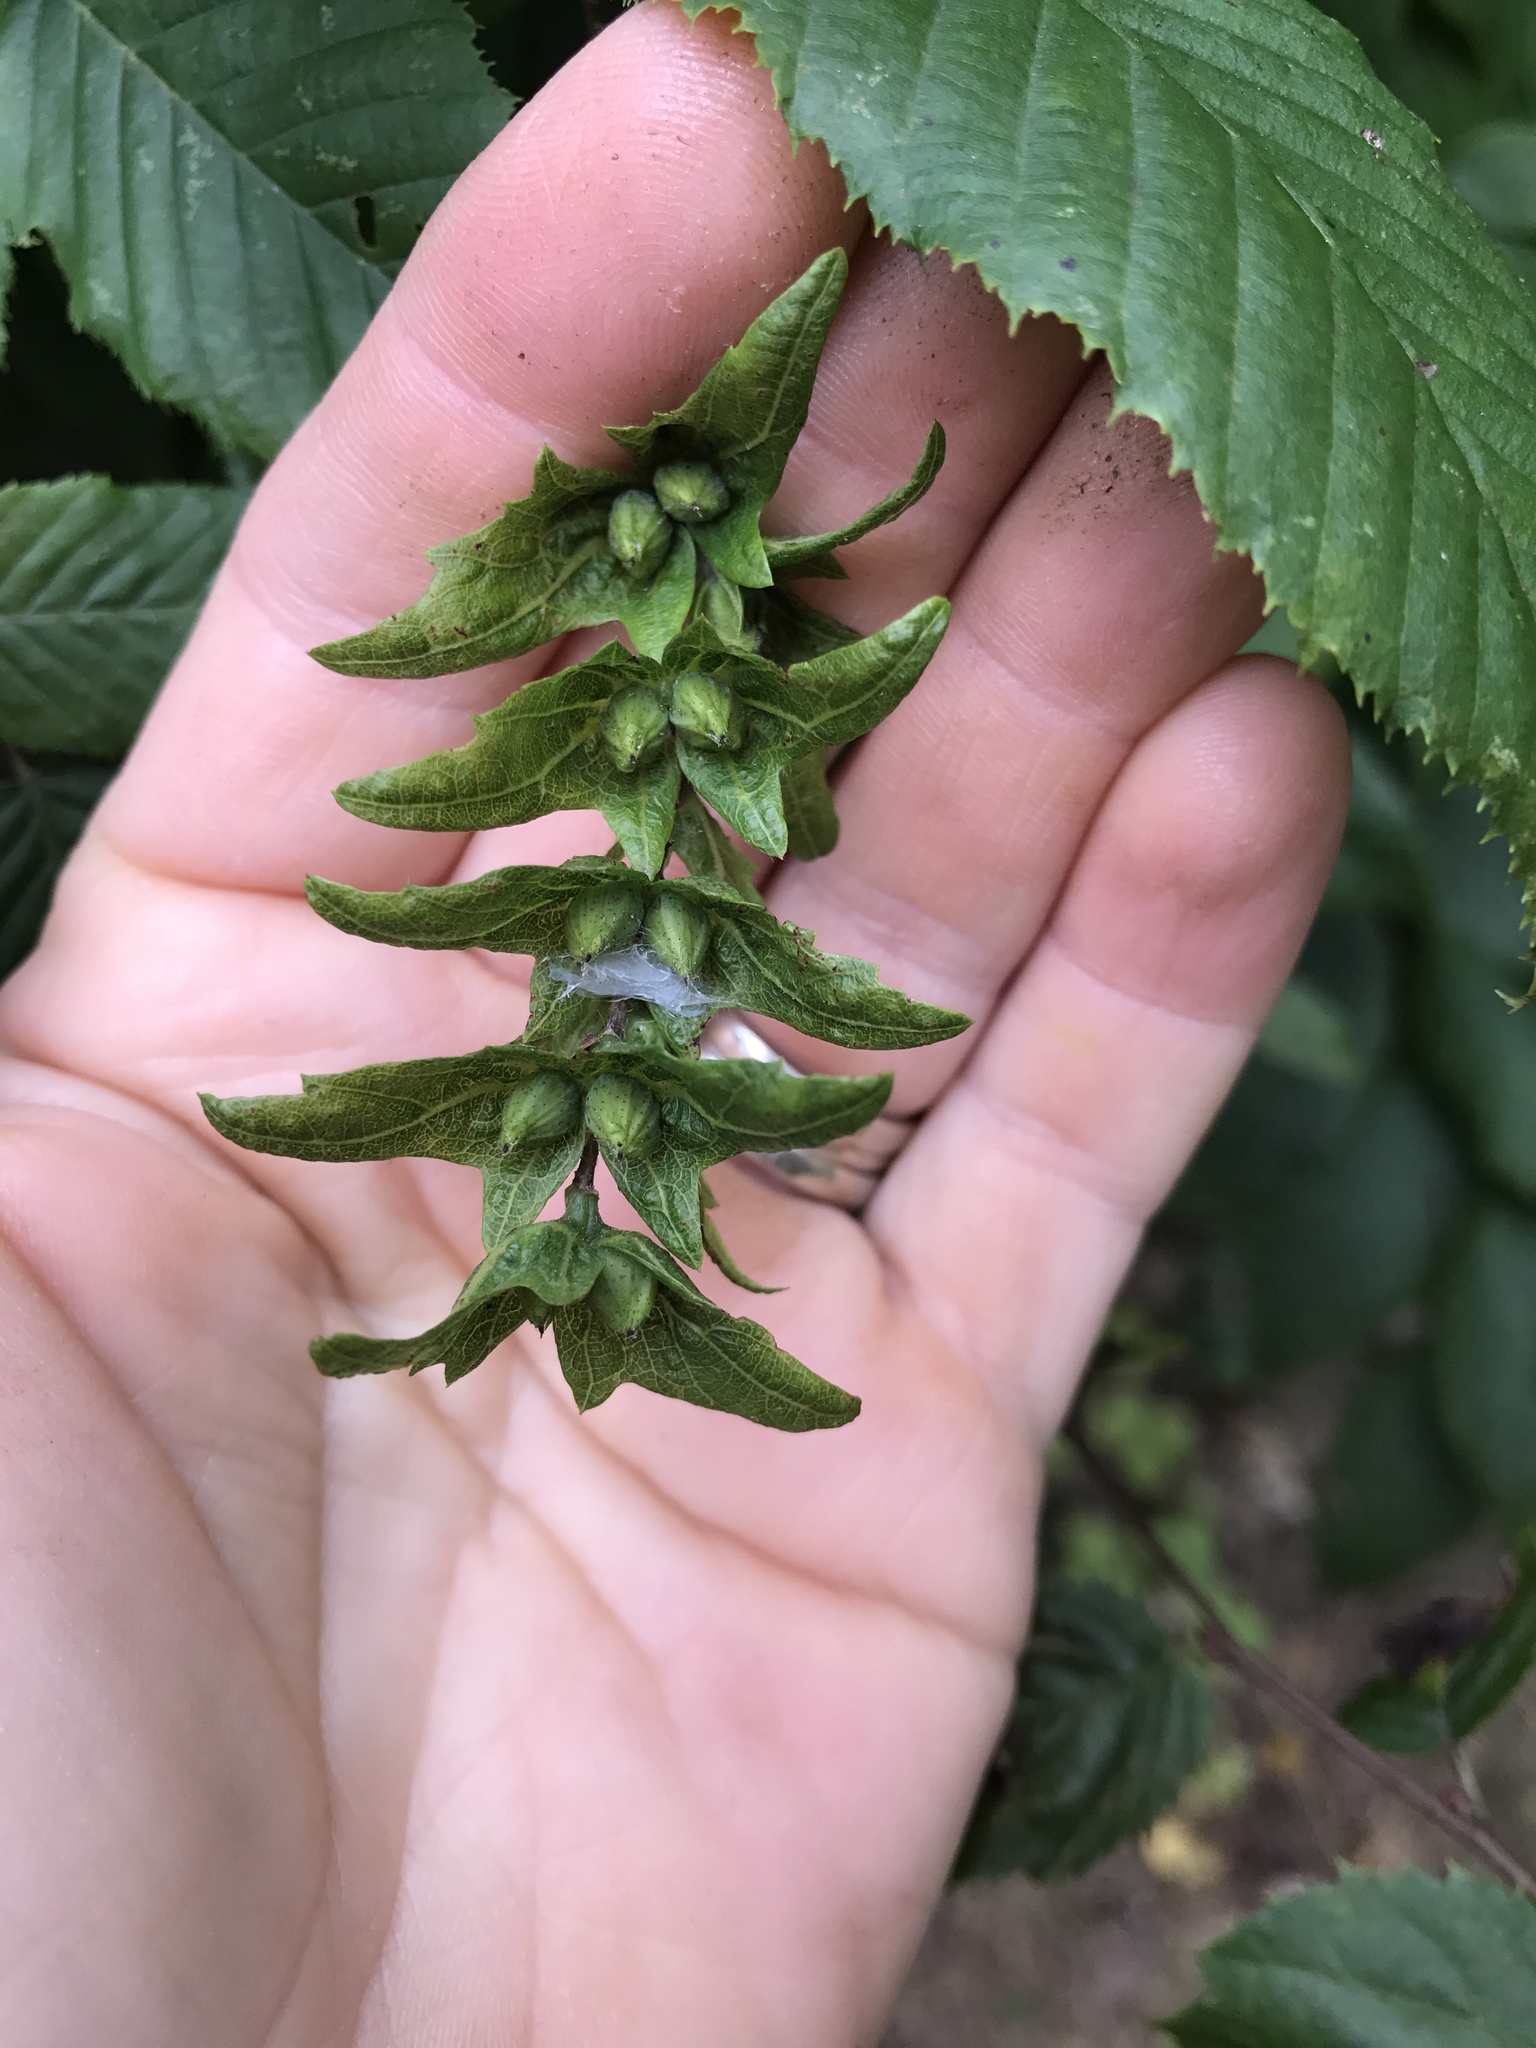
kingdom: Plantae
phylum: Tracheophyta
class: Magnoliopsida
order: Fagales
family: Betulaceae
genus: Carpinus
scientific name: Carpinus caroliniana
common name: American hornbeam
